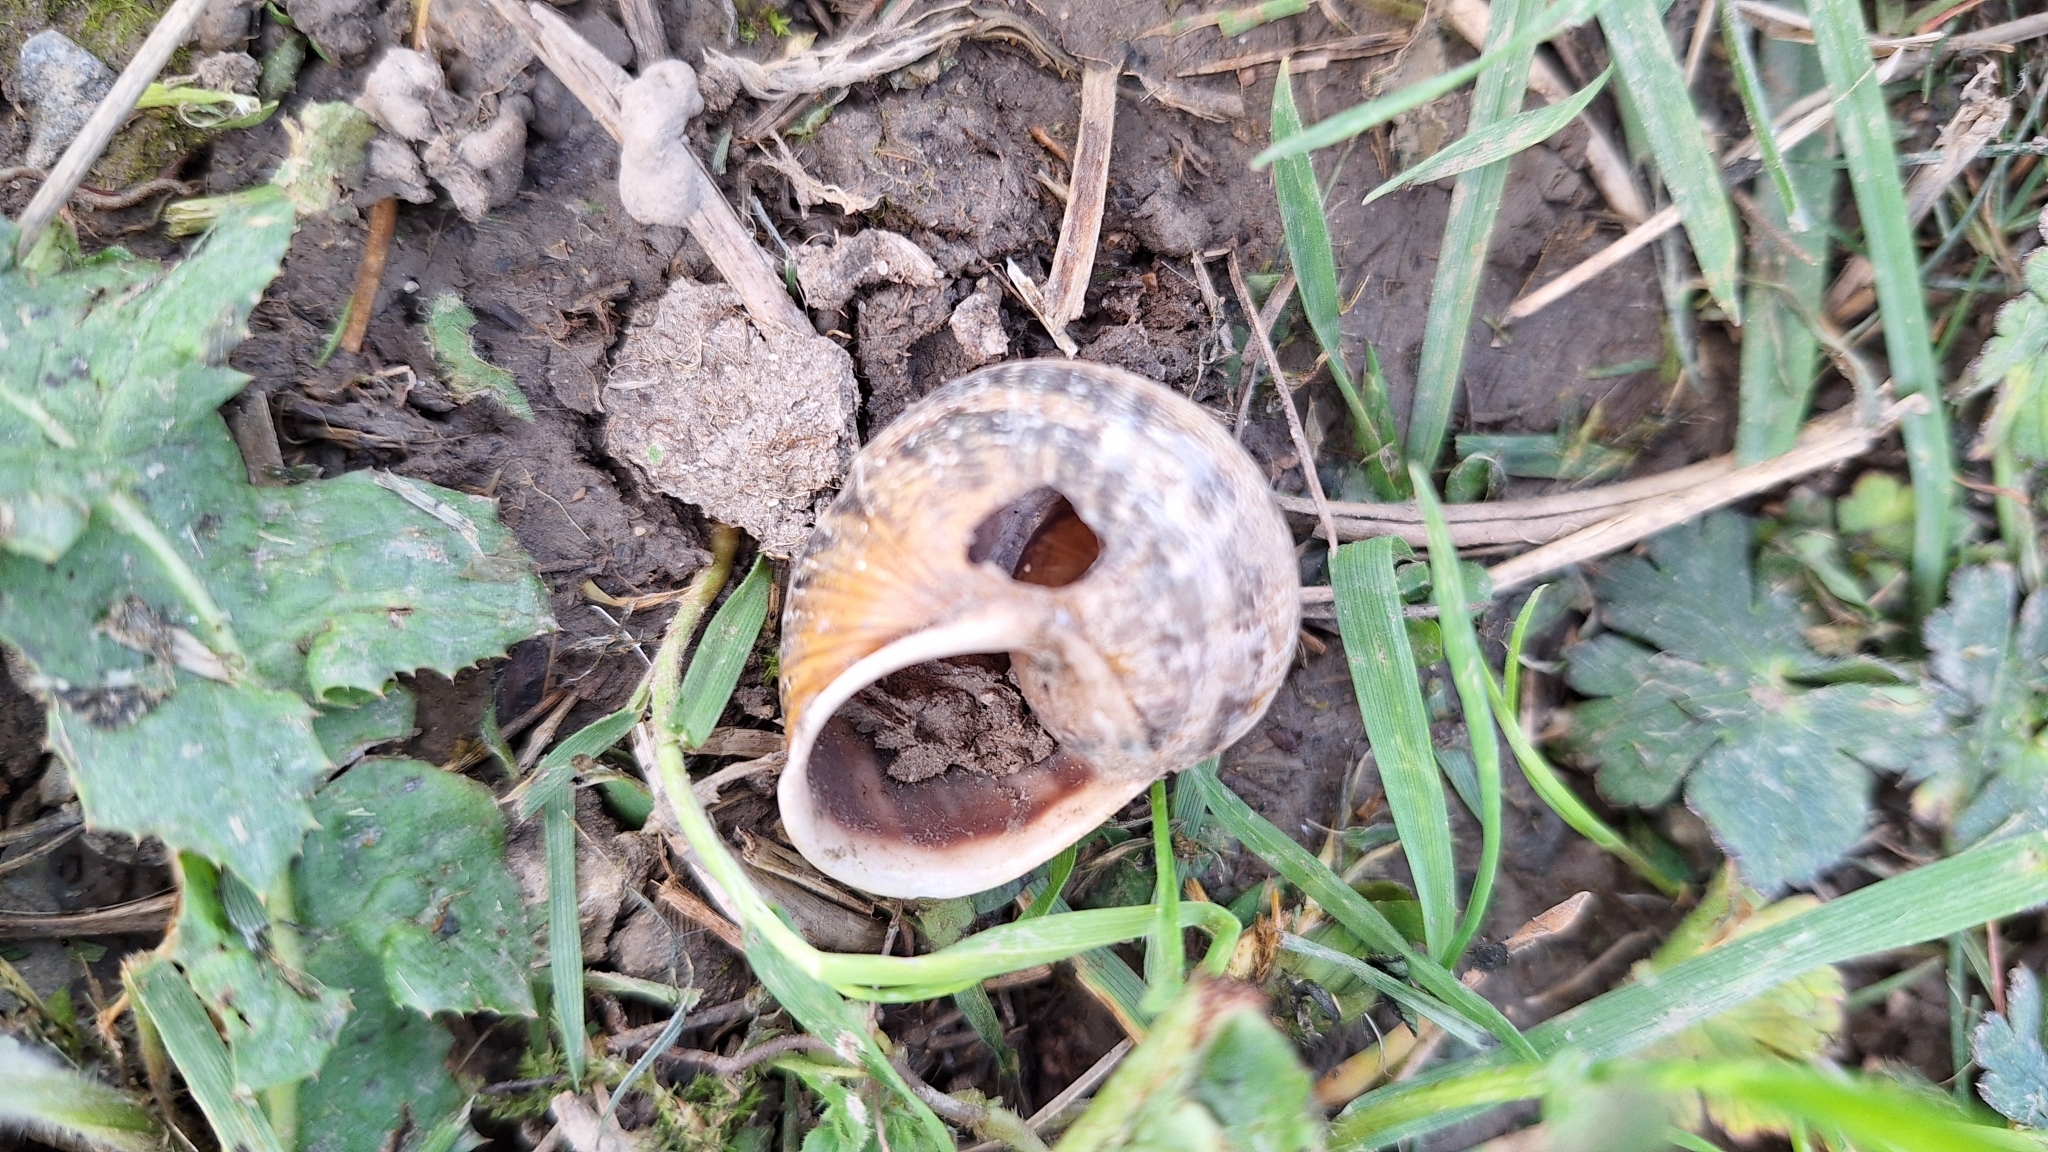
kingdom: Animalia
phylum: Mollusca
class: Gastropoda
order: Stylommatophora
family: Helicidae
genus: Cornu
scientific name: Cornu aspersum
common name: Brown garden snail
